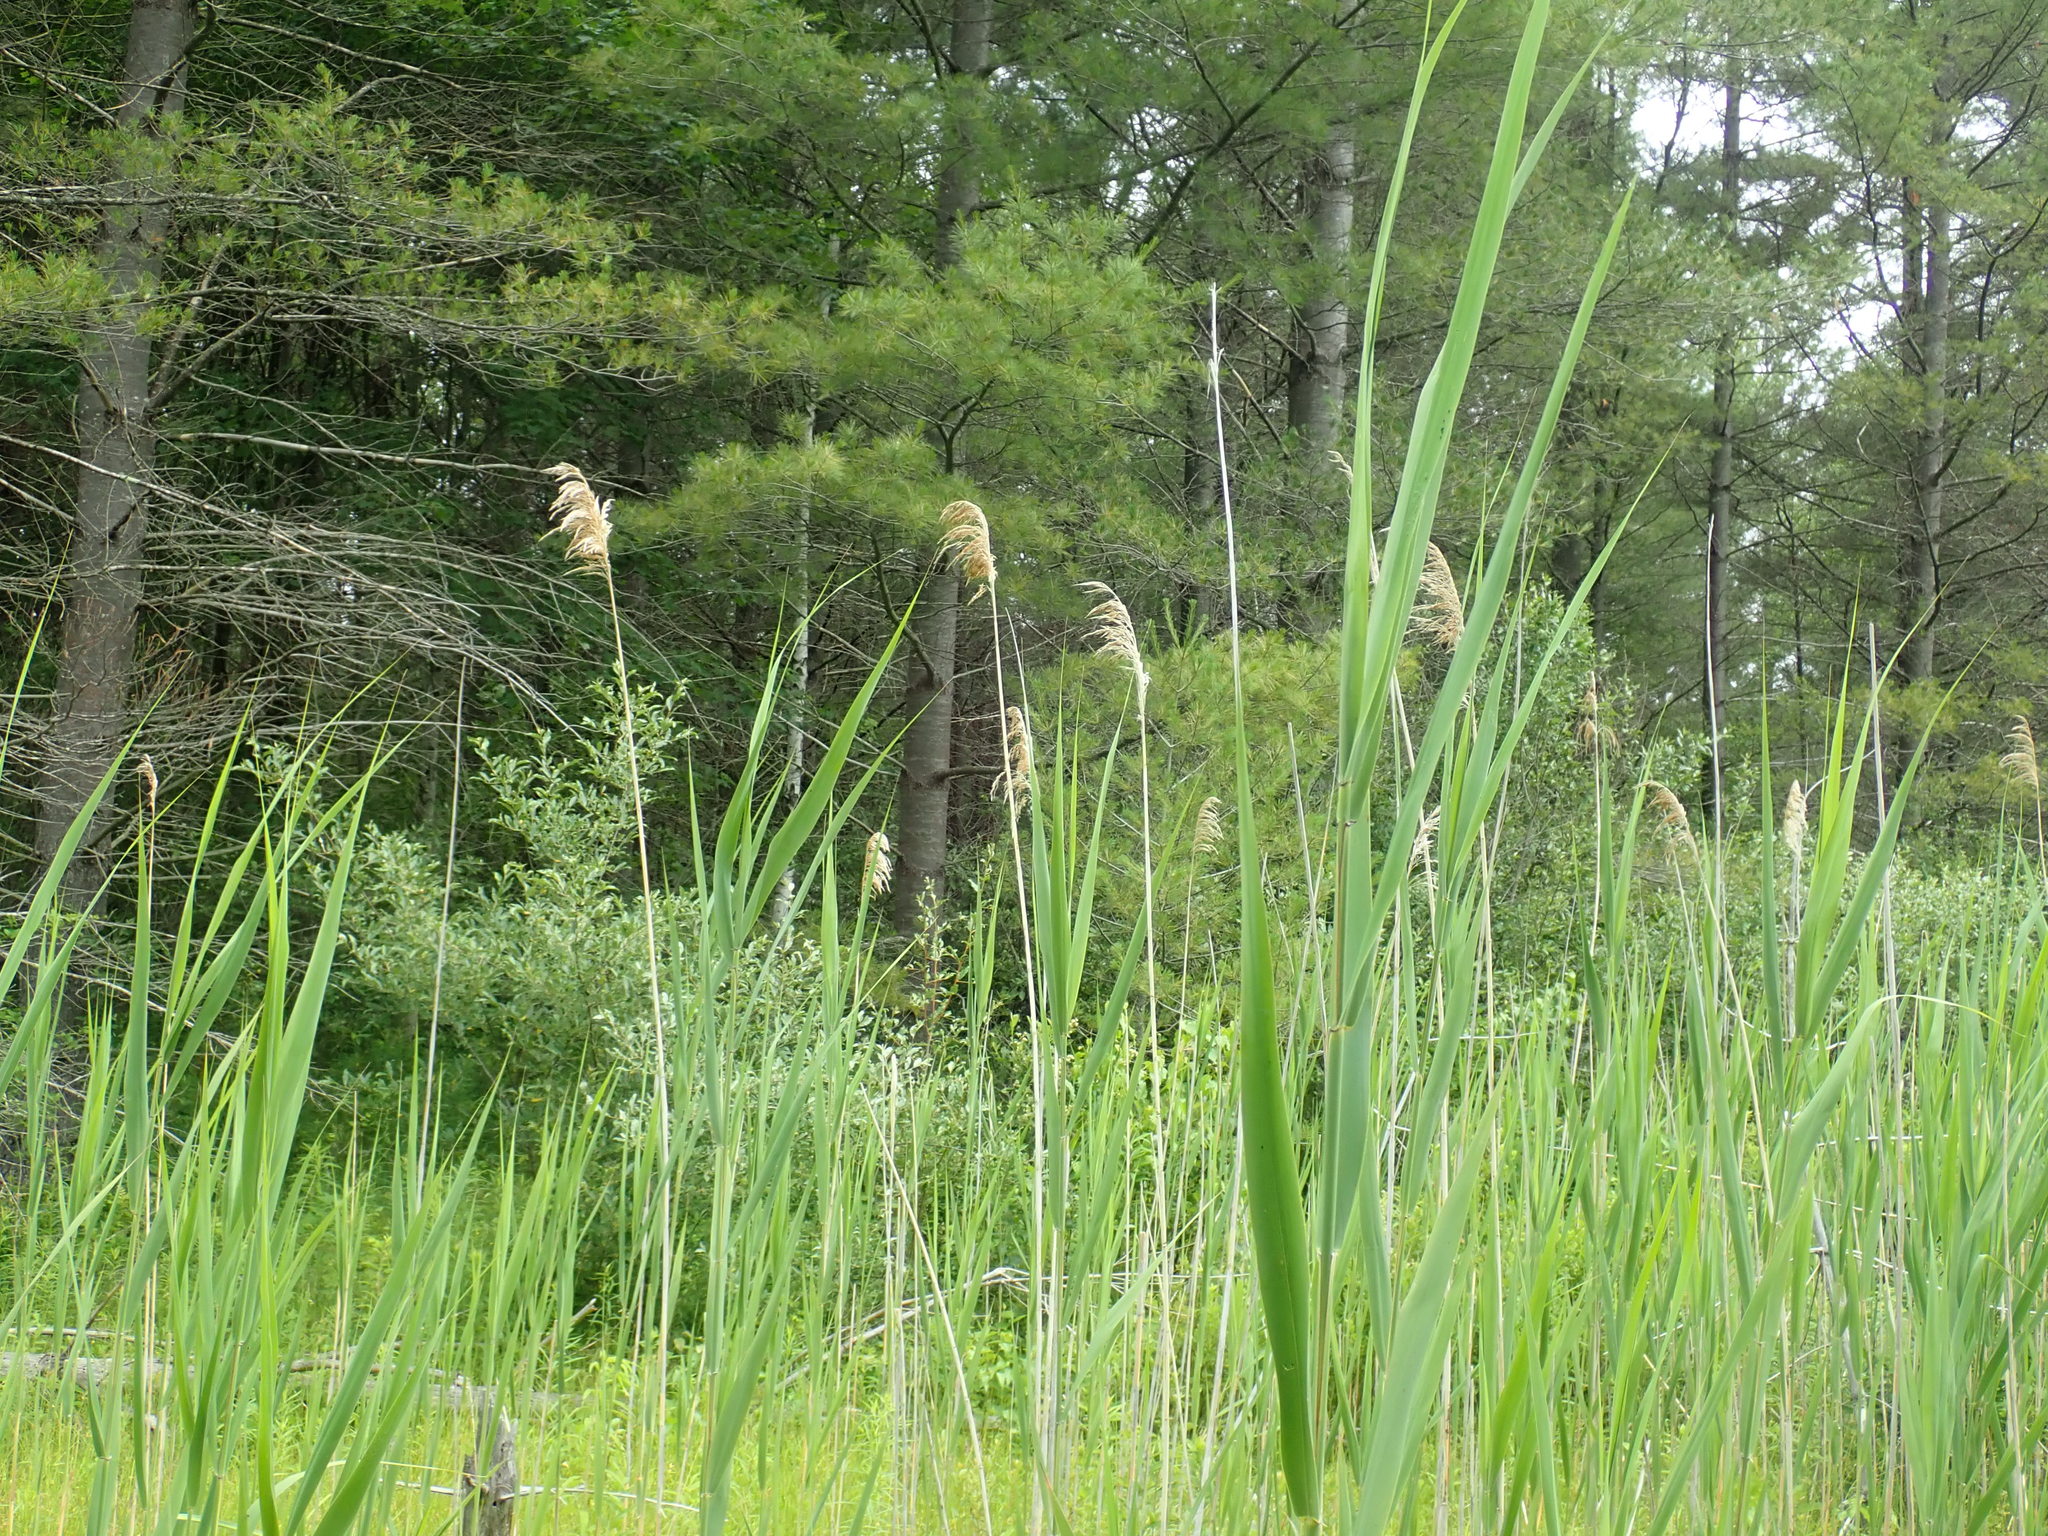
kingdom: Plantae
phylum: Tracheophyta
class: Liliopsida
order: Poales
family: Poaceae
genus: Phragmites
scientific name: Phragmites australis
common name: Common reed
